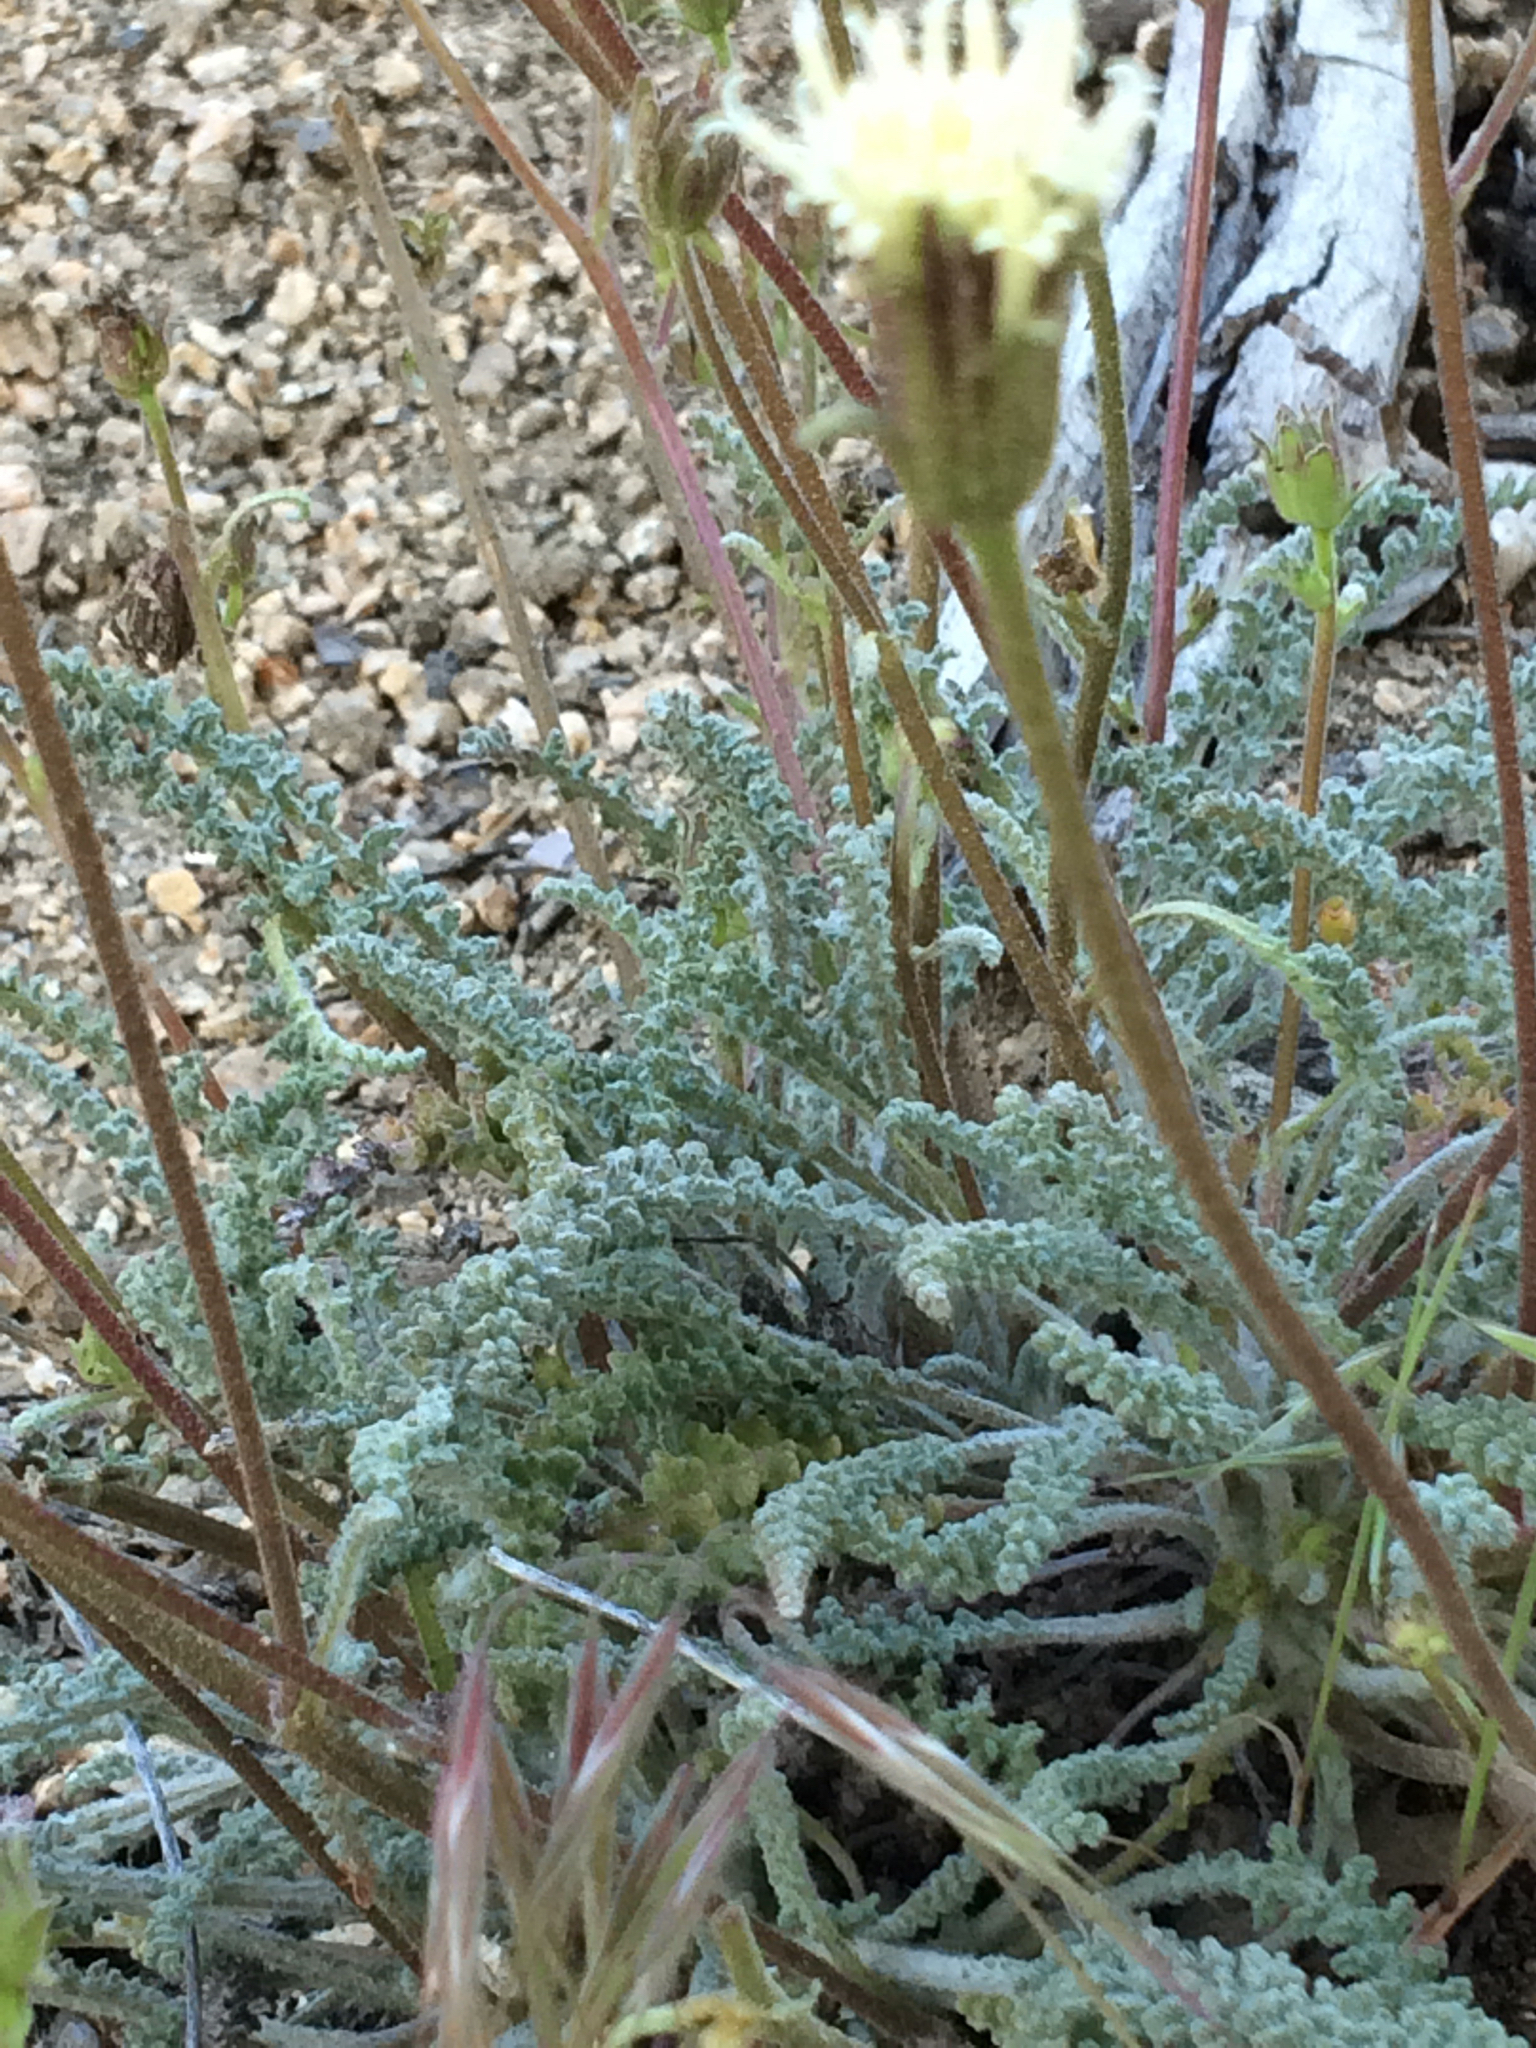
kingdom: Plantae
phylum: Tracheophyta
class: Magnoliopsida
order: Asterales
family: Asteraceae
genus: Chaenactis
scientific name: Chaenactis santolinoides
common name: Santolina pincushion
